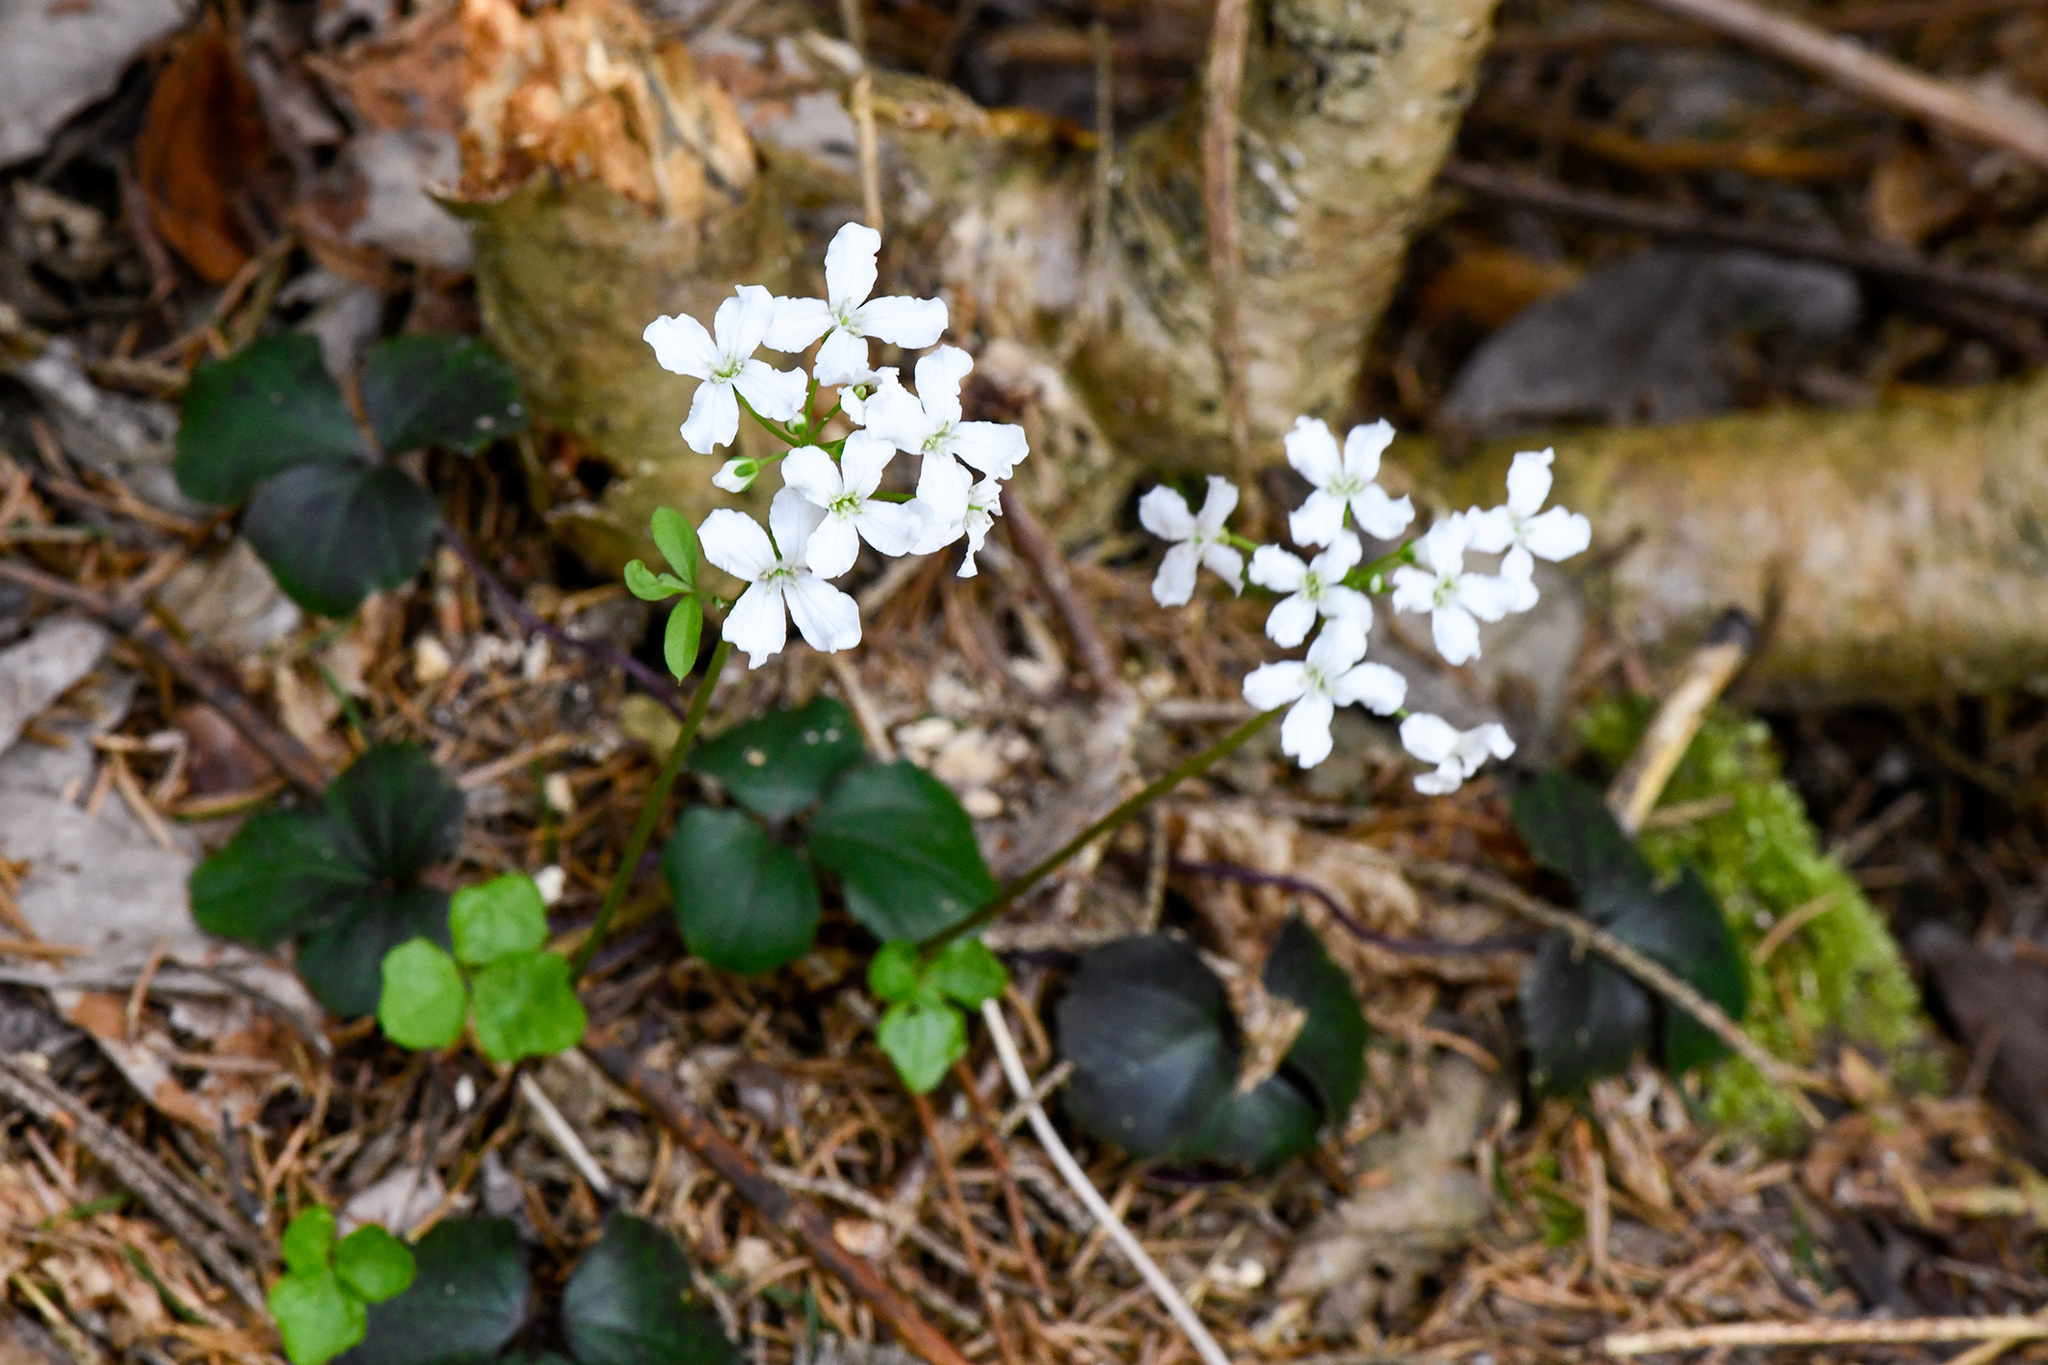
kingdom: Plantae
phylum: Tracheophyta
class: Magnoliopsida
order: Brassicales
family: Brassicaceae
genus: Cardamine
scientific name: Cardamine trifolia
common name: Trefoil cress
